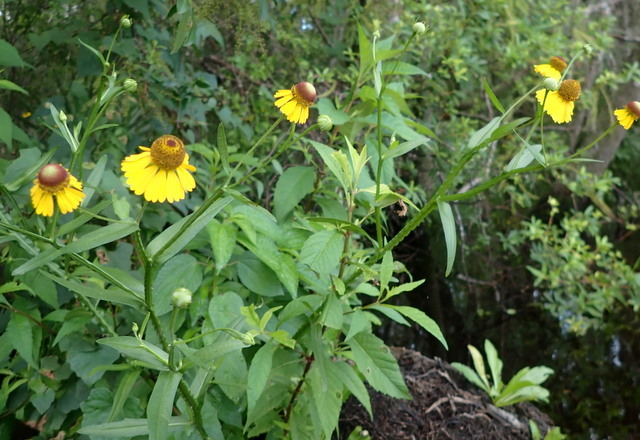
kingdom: Plantae
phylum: Tracheophyta
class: Magnoliopsida
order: Asterales
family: Asteraceae
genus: Helenium
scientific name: Helenium flexuosum
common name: Naked-flowered sneezeweed
